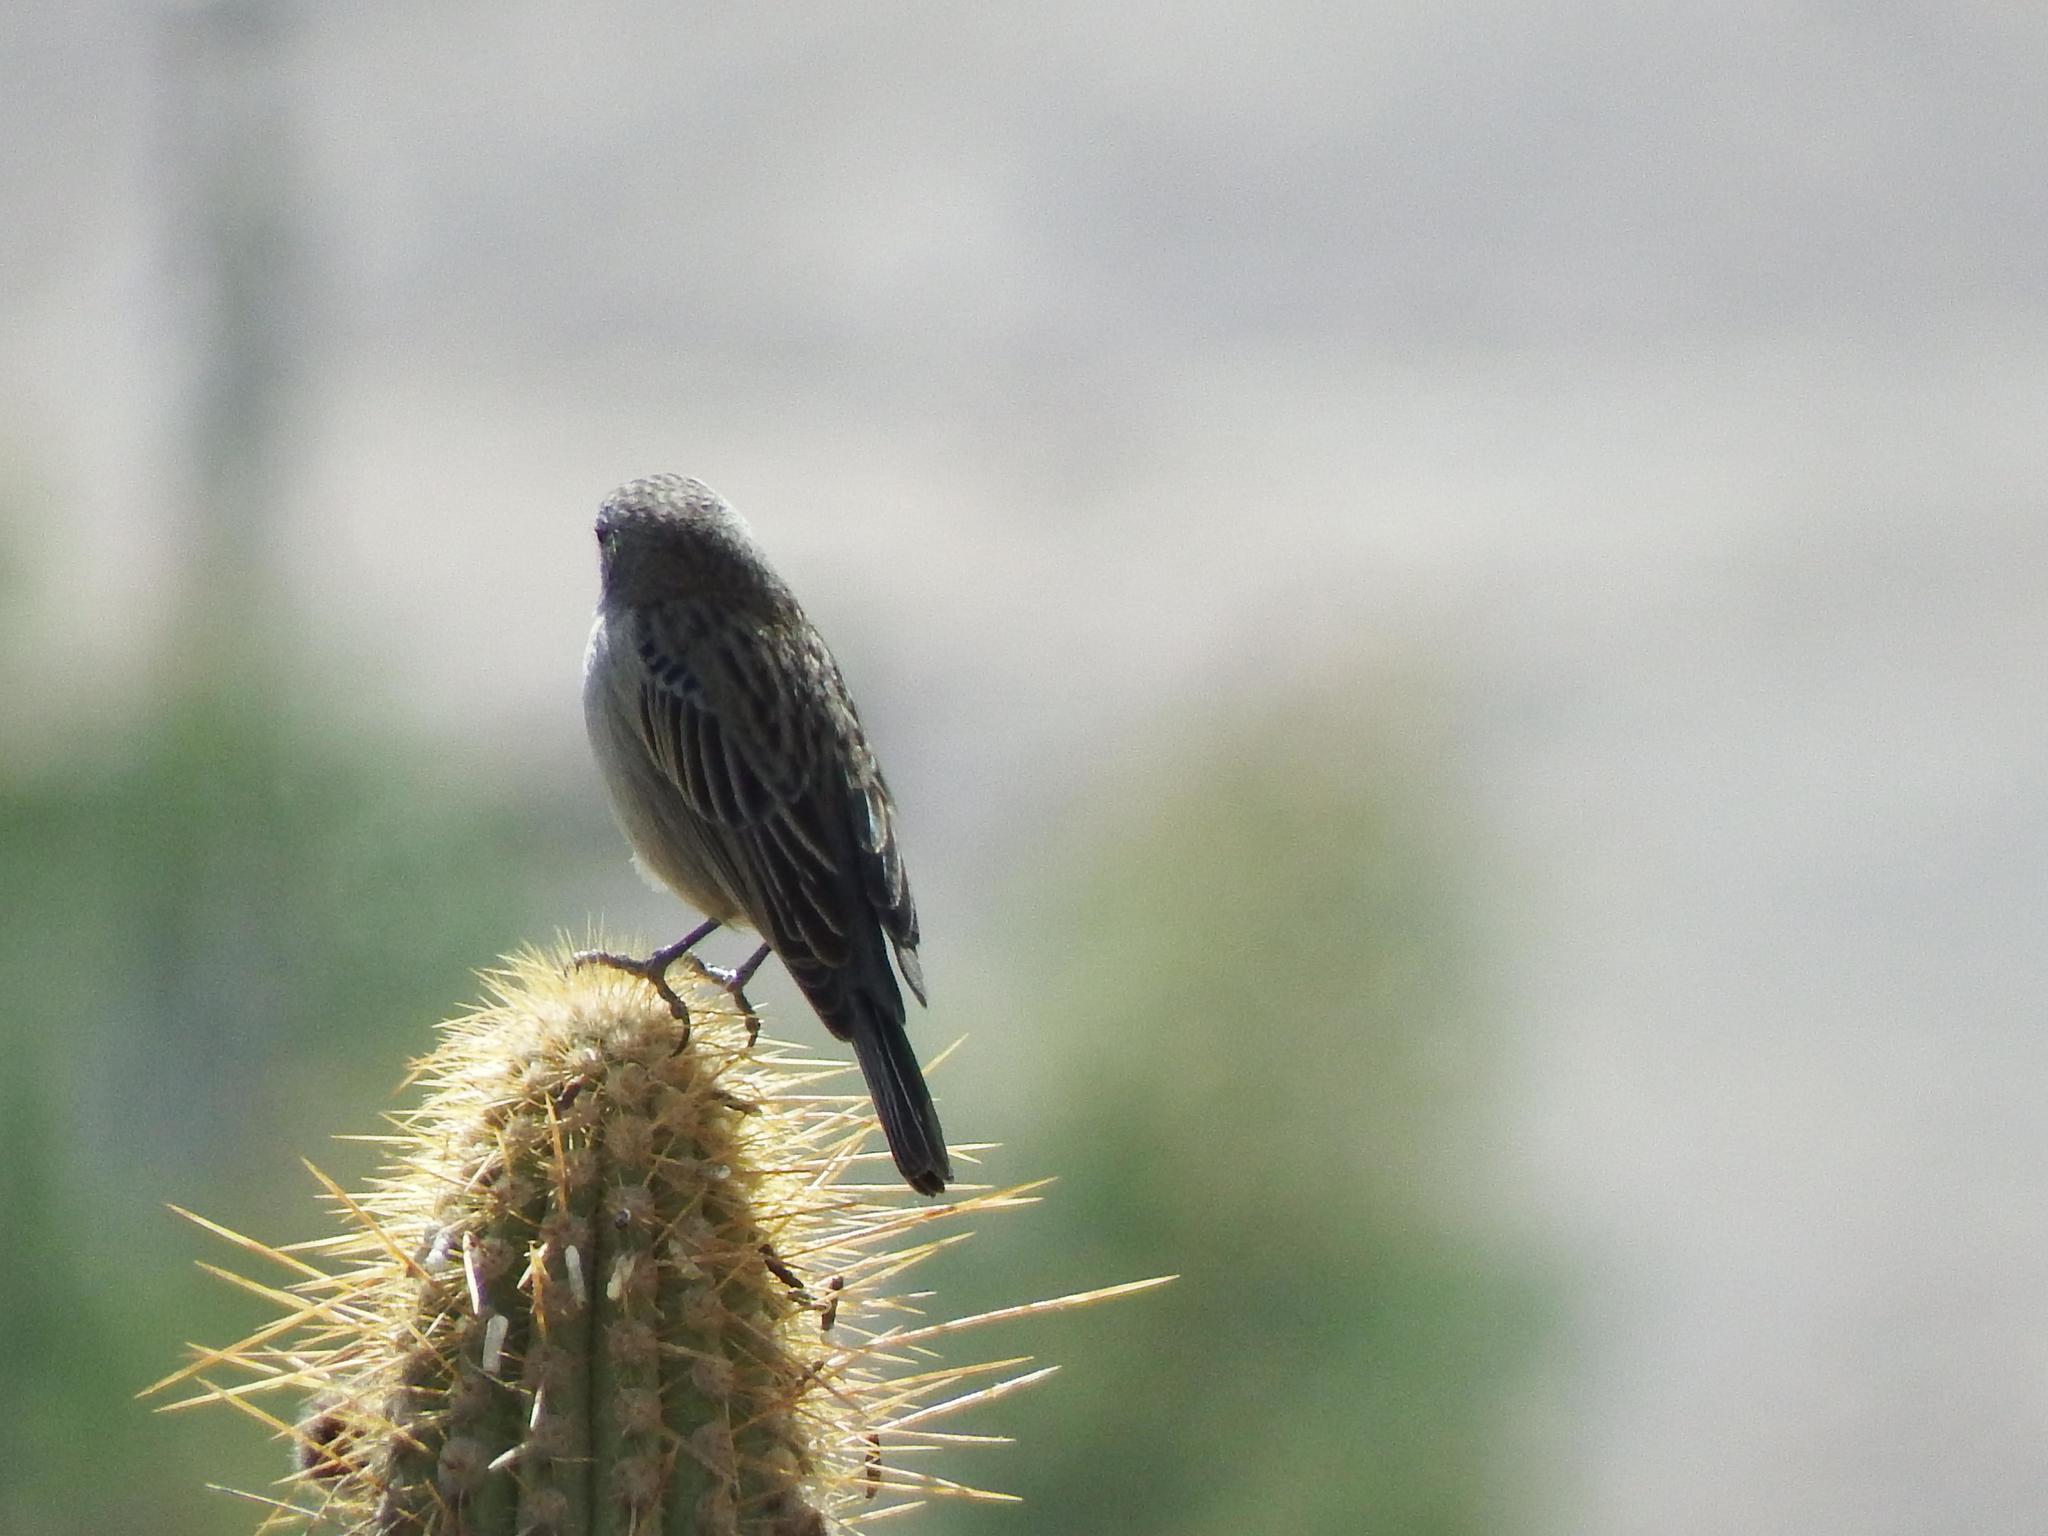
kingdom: Animalia
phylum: Chordata
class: Aves
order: Passeriformes
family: Thraupidae
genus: Geospizopsis
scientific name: Geospizopsis plebejus
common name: Ash-breasted sierra-finch
